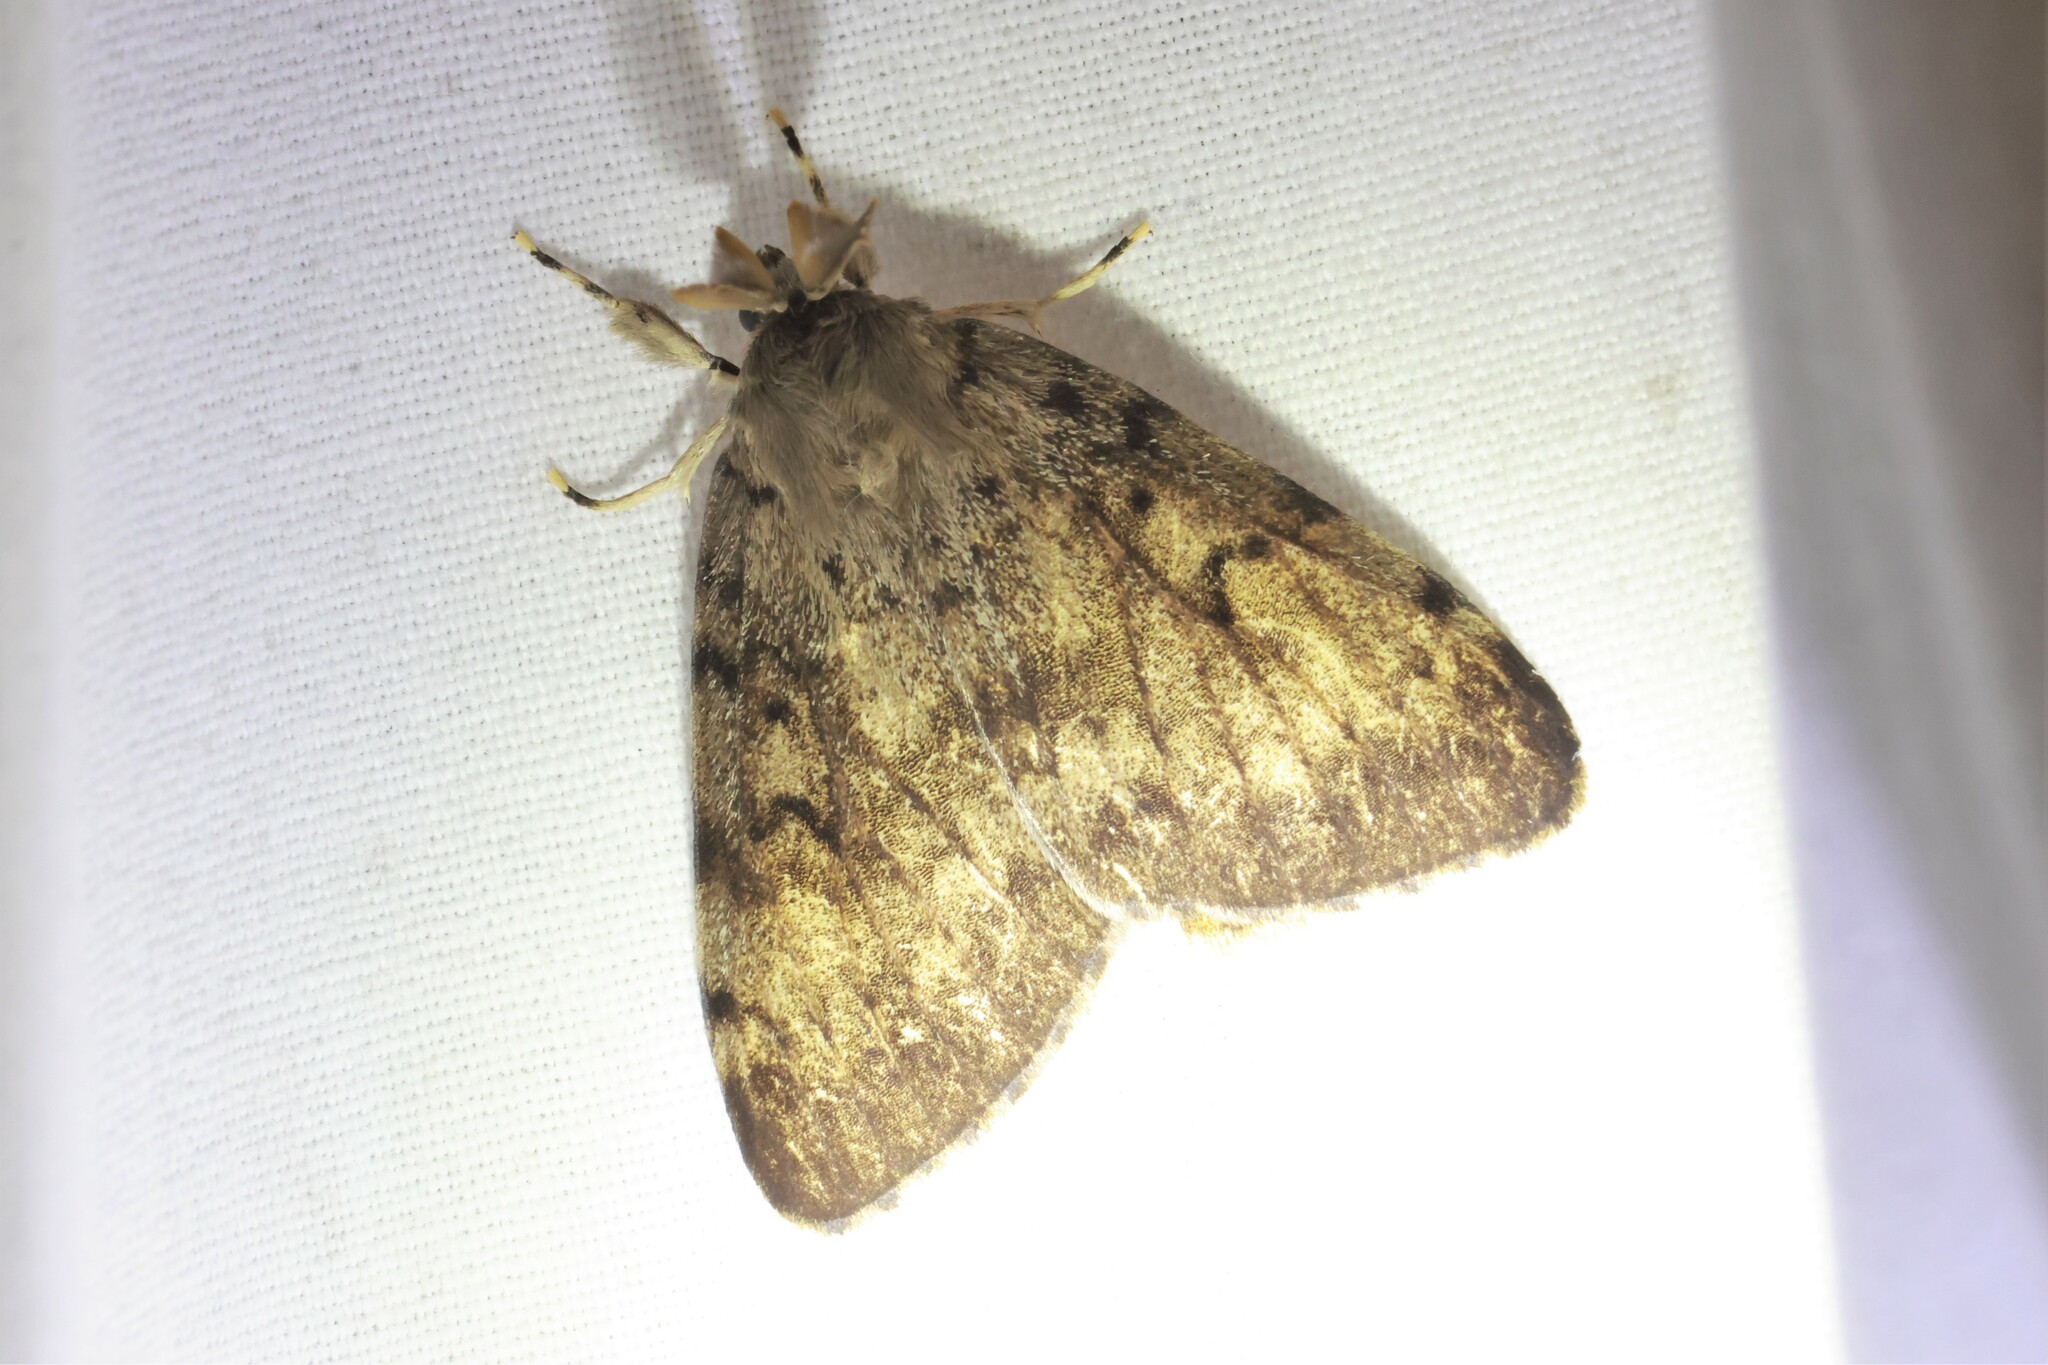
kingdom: Animalia
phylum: Arthropoda
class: Insecta
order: Lepidoptera
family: Erebidae
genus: Lymantria
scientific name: Lymantria dispar
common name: Gypsy moth
